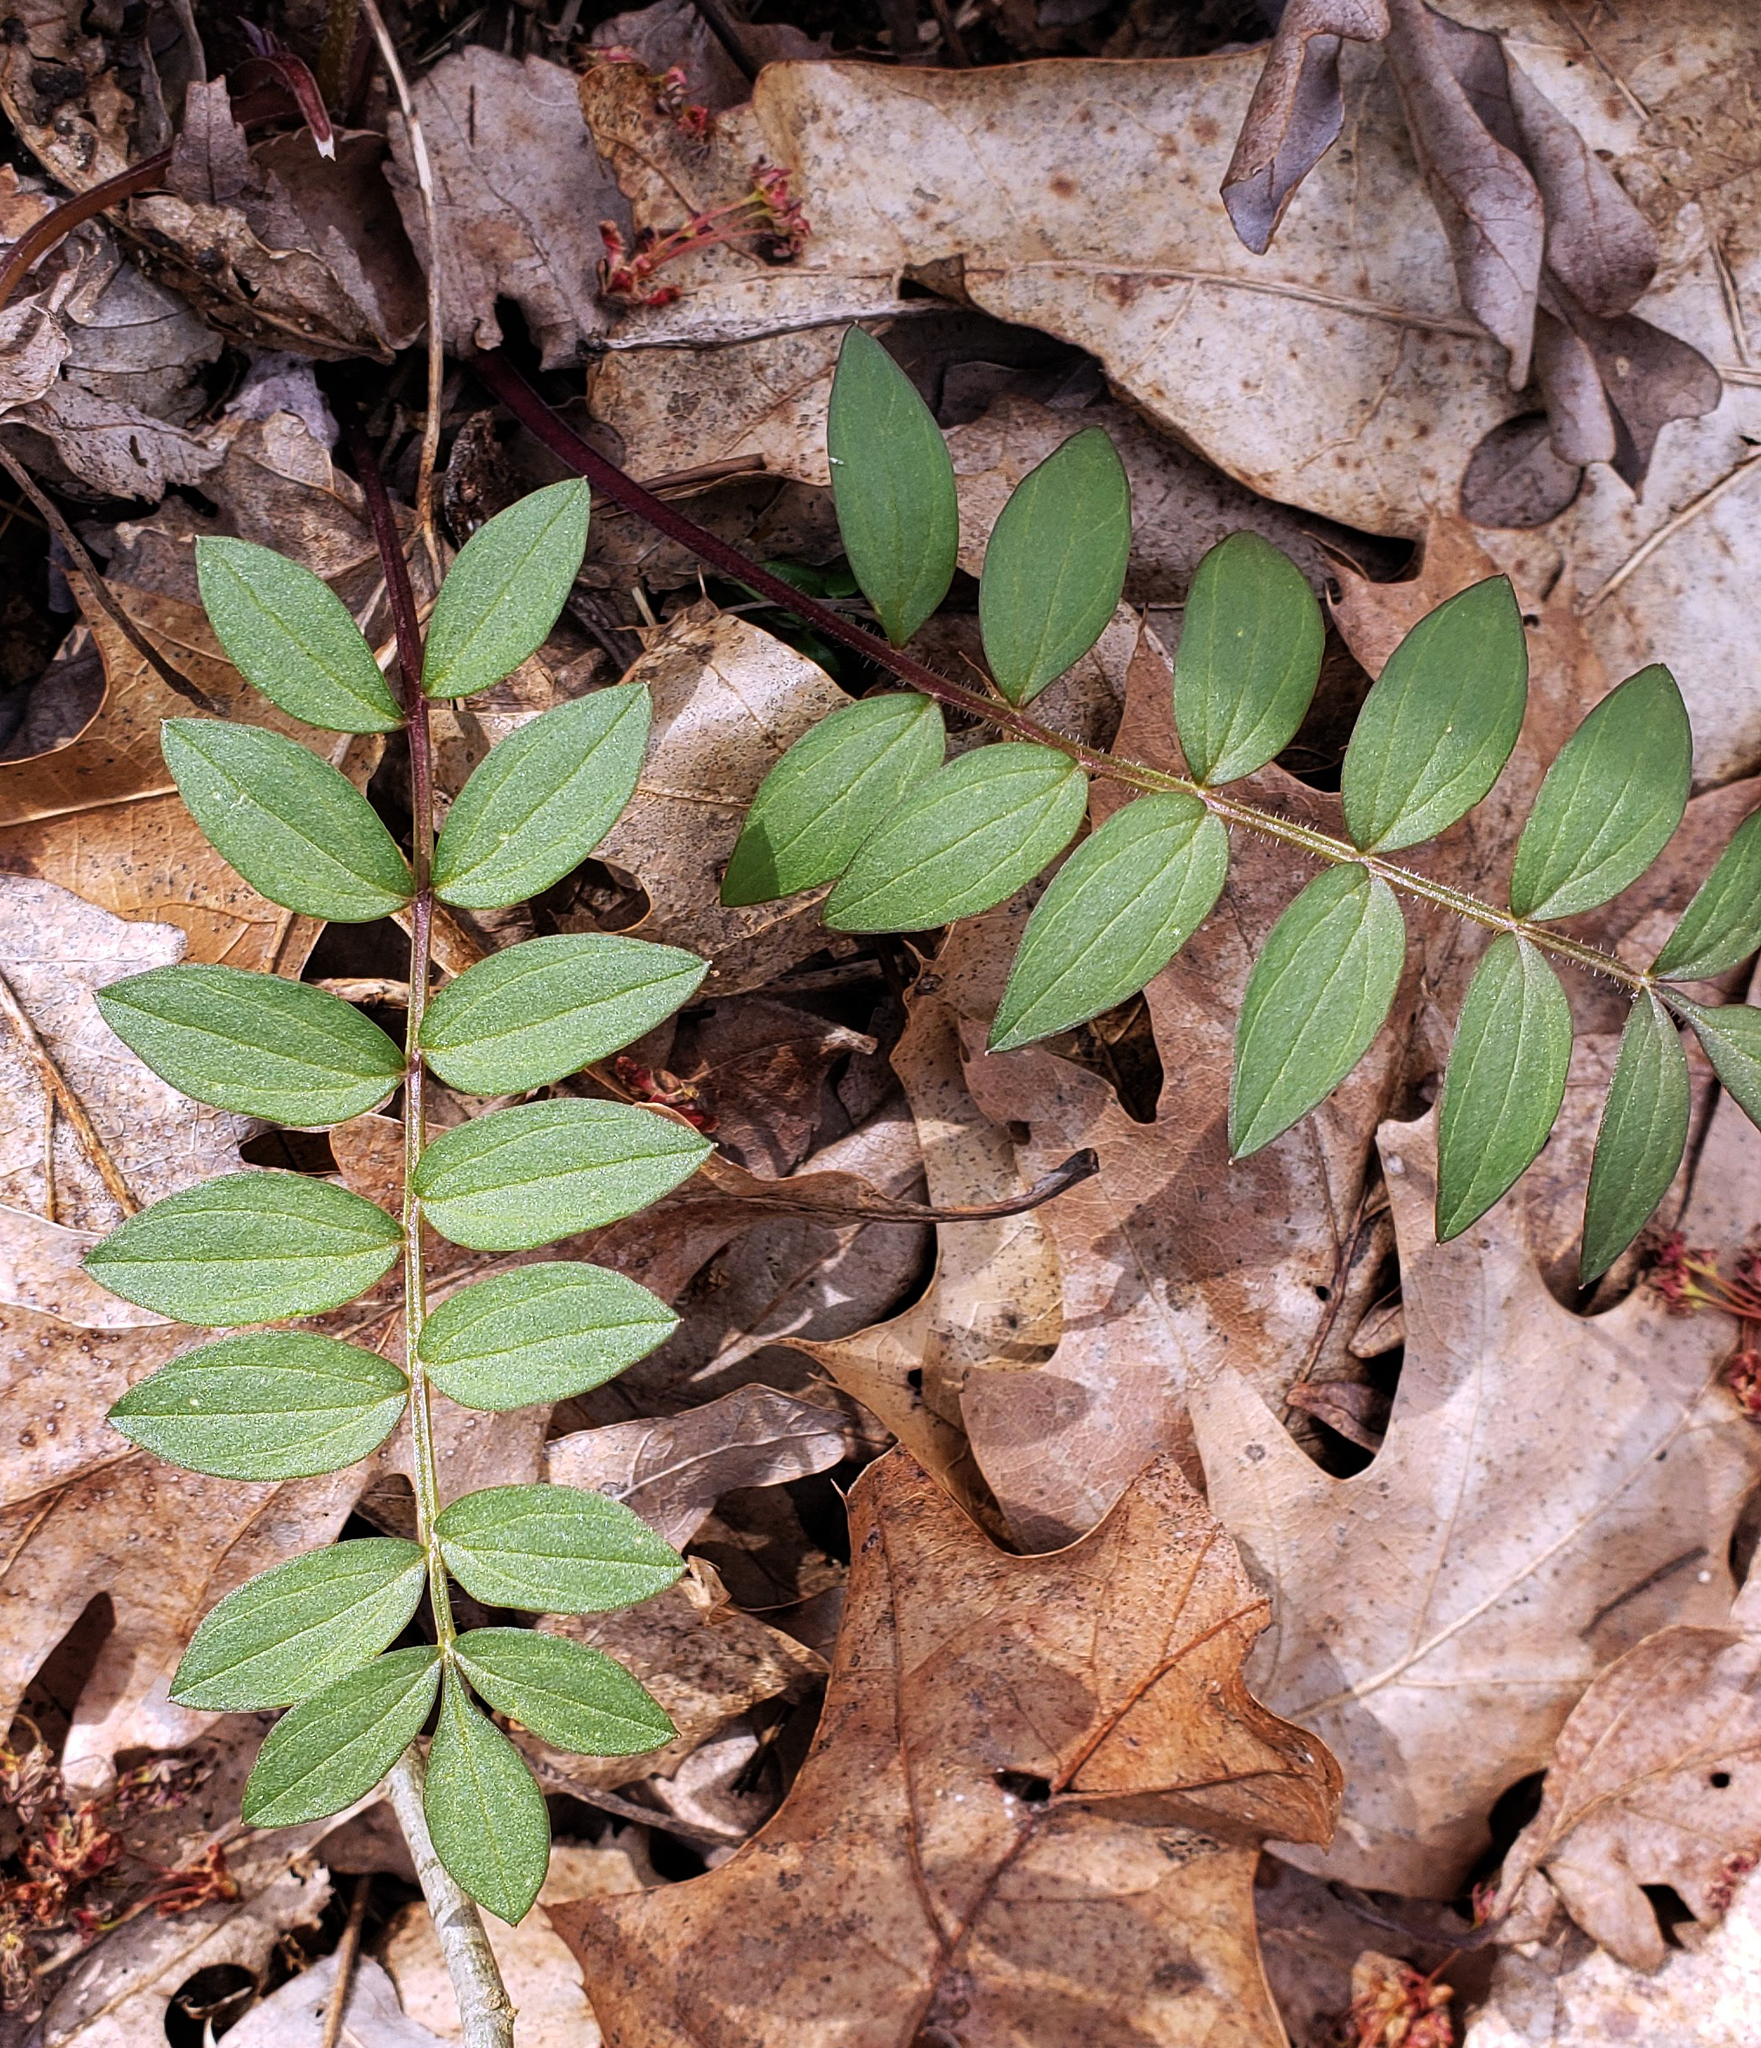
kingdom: Plantae
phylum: Tracheophyta
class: Magnoliopsida
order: Ericales
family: Polemoniaceae
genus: Polemonium
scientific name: Polemonium reptans
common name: Creeping jacob's-ladder
